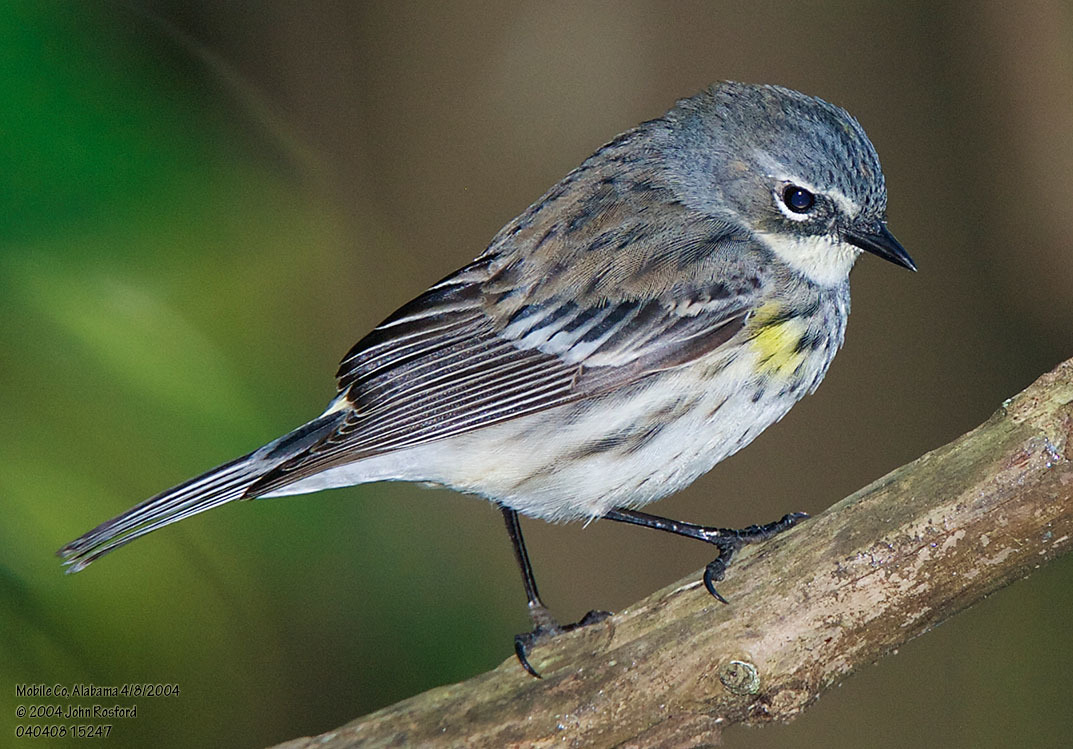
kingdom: Animalia
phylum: Chordata
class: Aves
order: Passeriformes
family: Parulidae
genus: Setophaga
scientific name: Setophaga coronata
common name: Myrtle warbler
